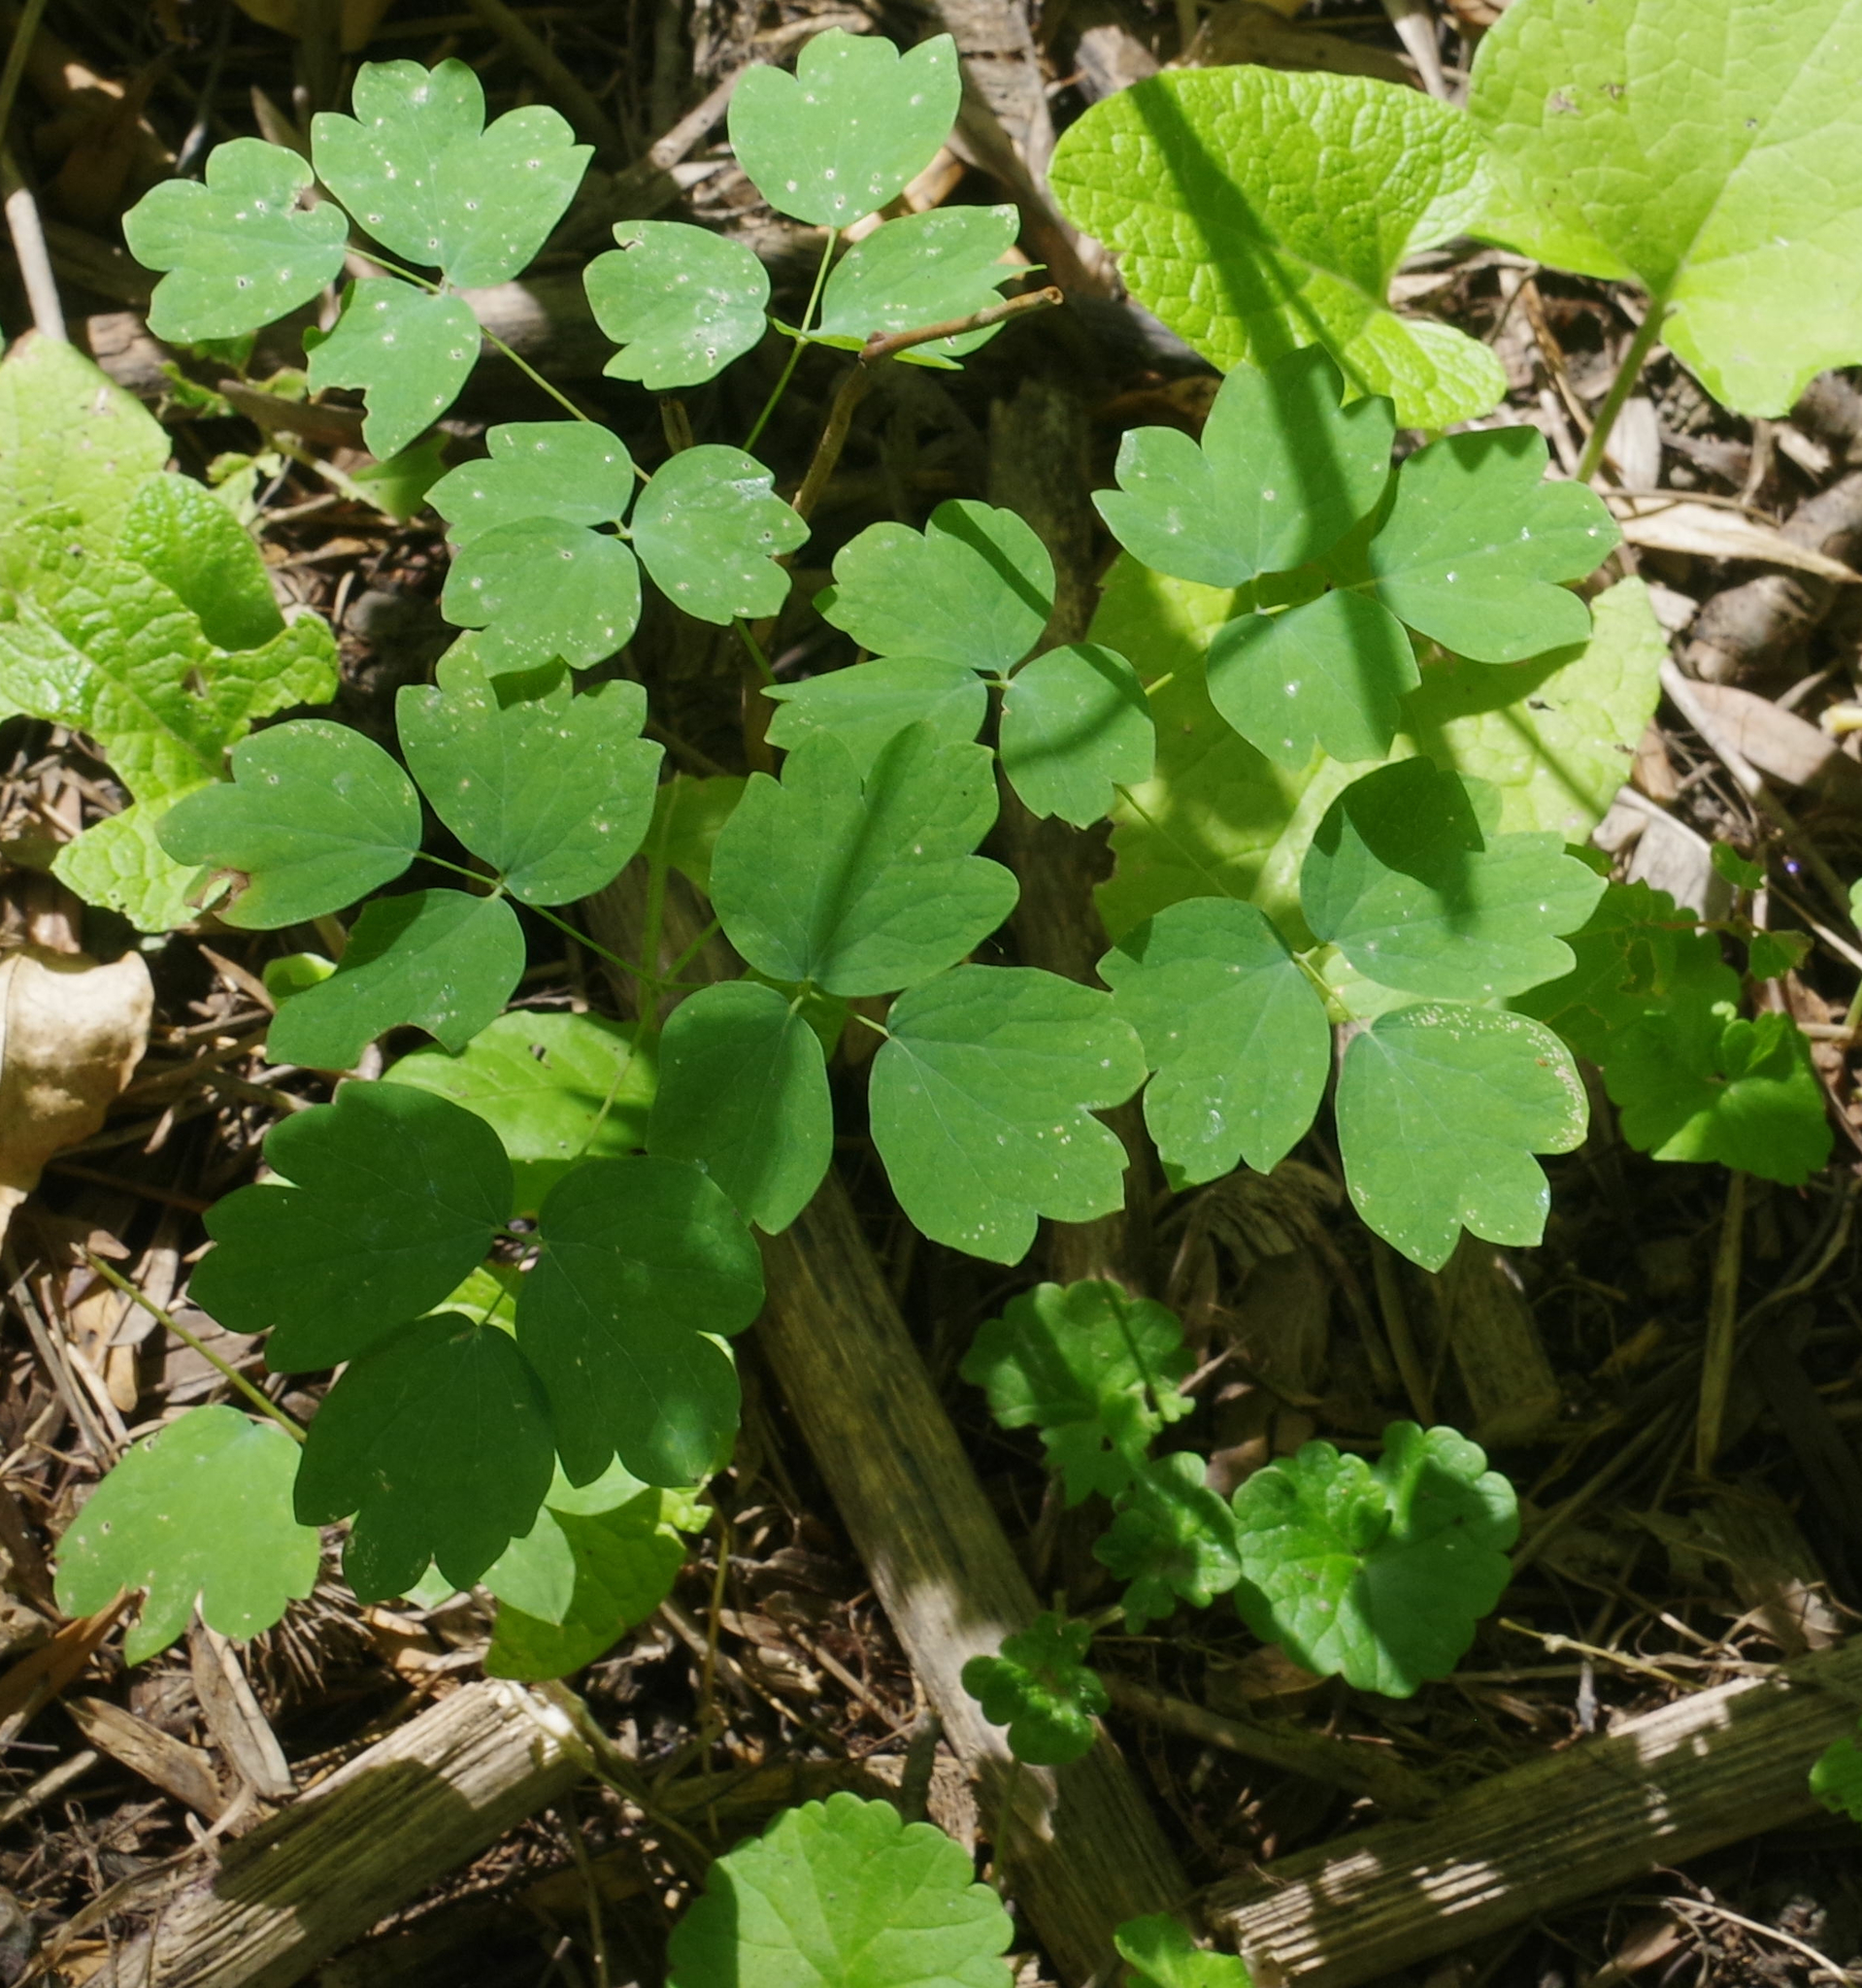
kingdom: Plantae
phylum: Tracheophyta
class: Magnoliopsida
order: Ranunculales
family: Ranunculaceae
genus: Thalictrum
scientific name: Thalictrum venulosum
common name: Early meadow-rue
